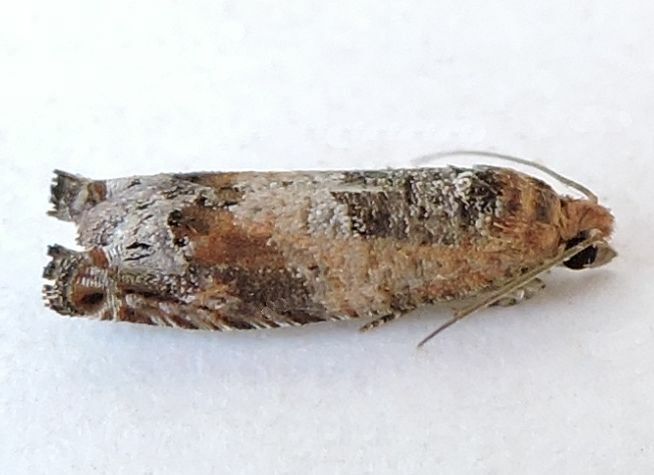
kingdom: Animalia
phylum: Arthropoda
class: Insecta
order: Lepidoptera
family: Tortricidae
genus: Pseudexentera
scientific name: Pseudexentera oreios
